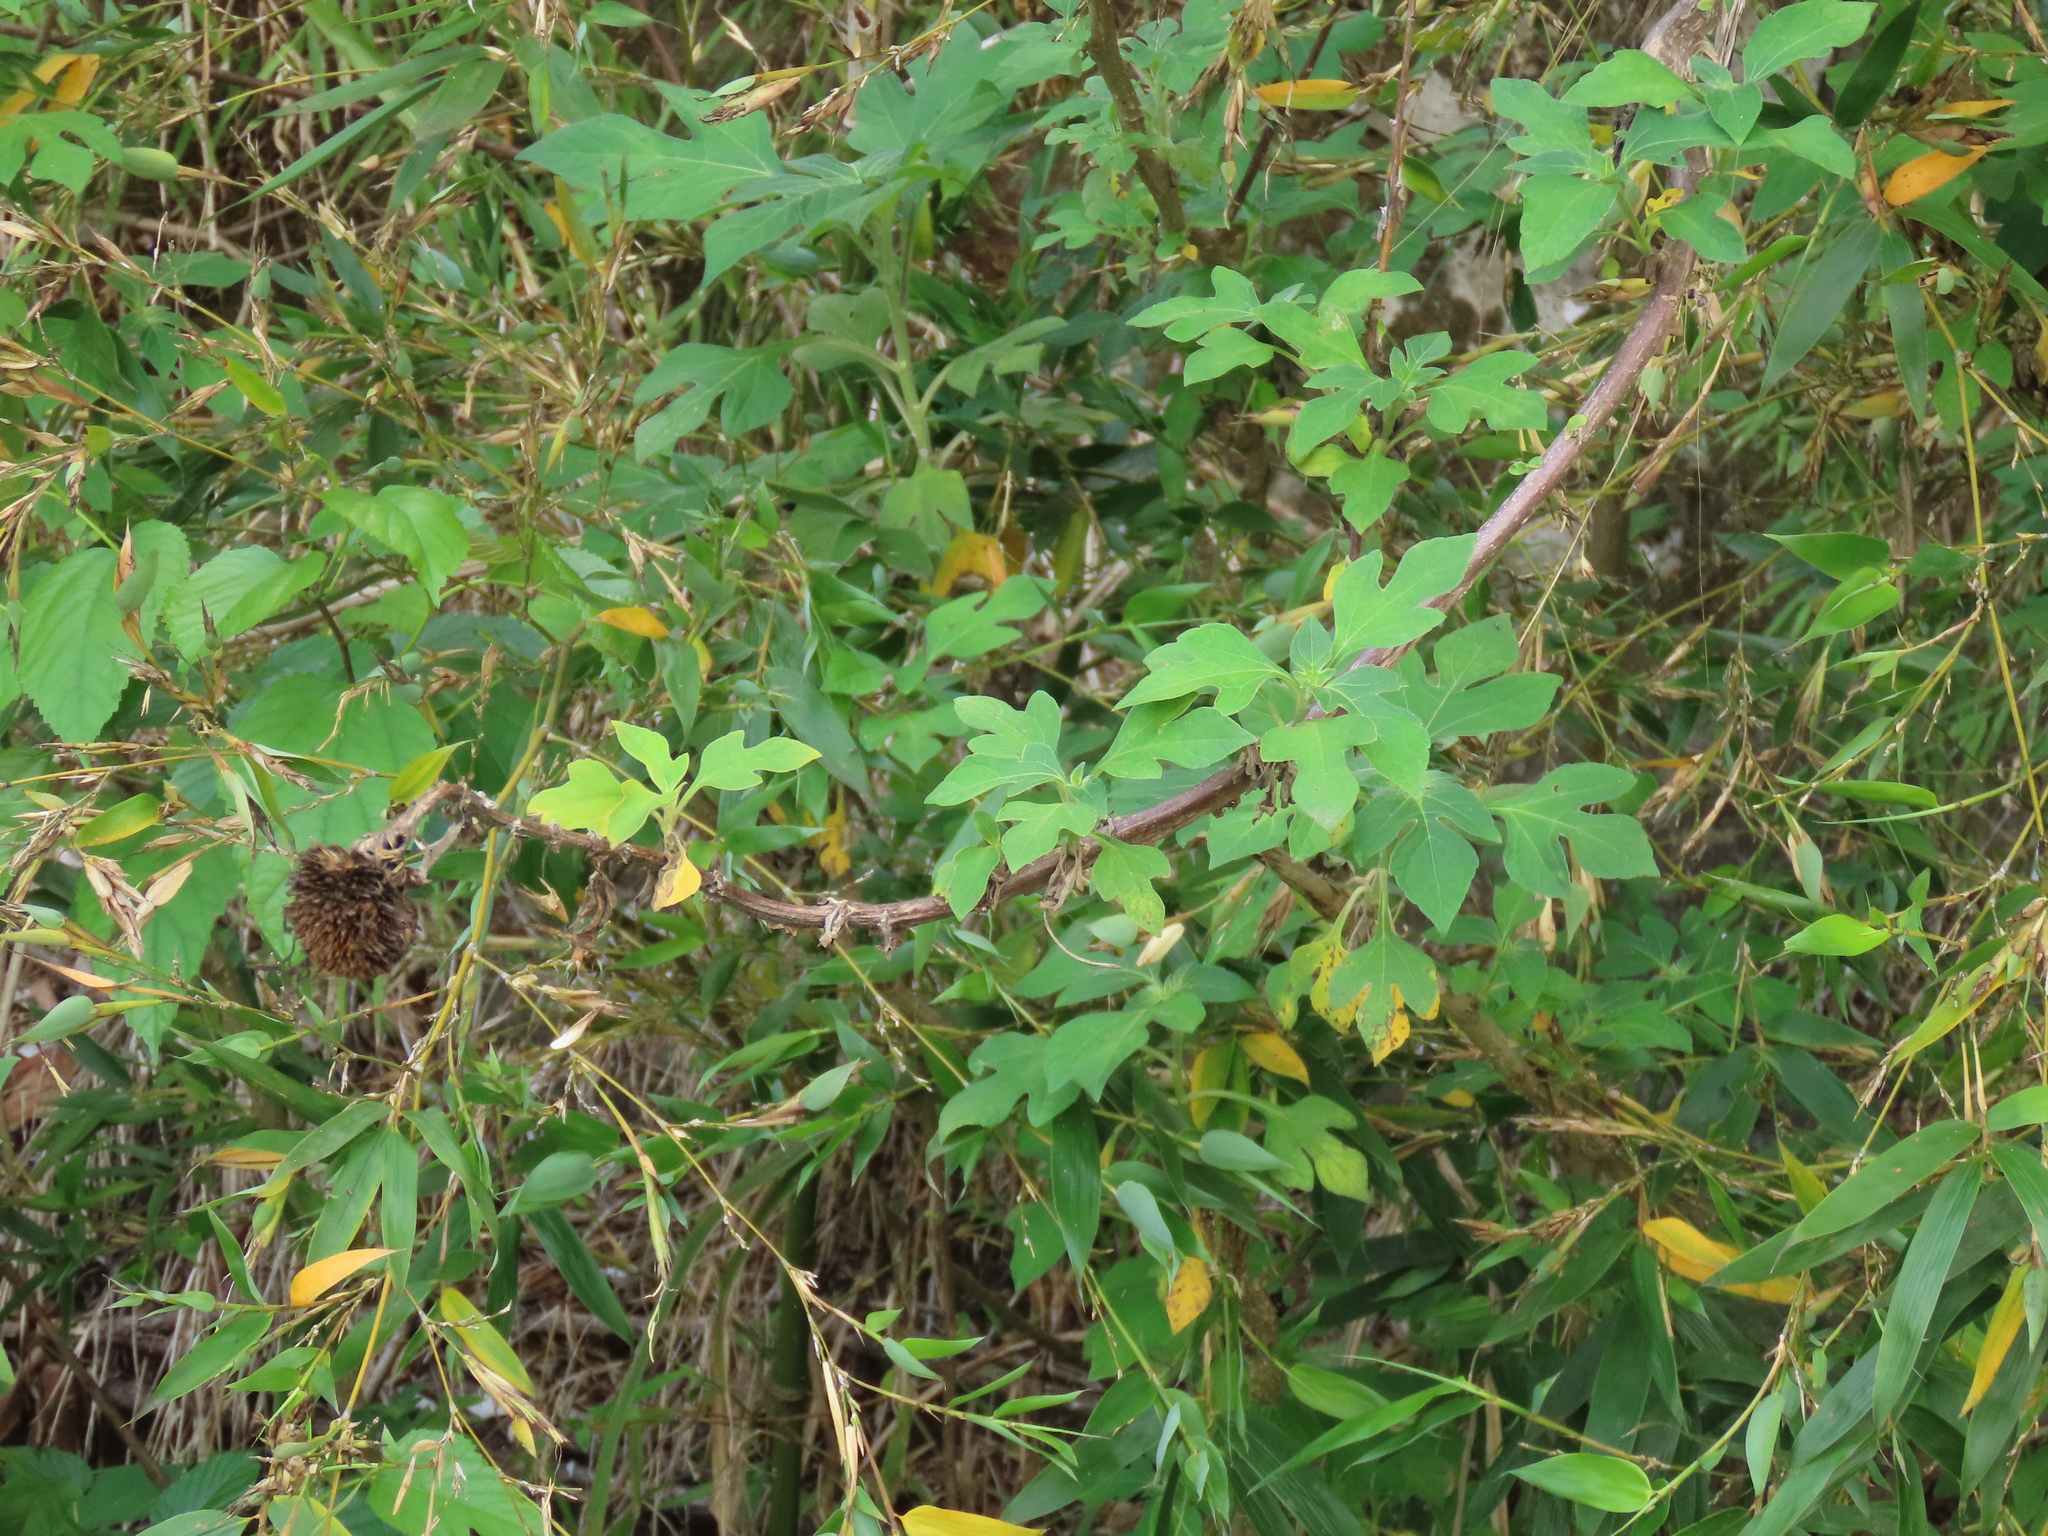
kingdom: Plantae
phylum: Tracheophyta
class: Magnoliopsida
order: Asterales
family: Asteraceae
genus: Tithonia
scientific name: Tithonia diversifolia
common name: Tree marigold
